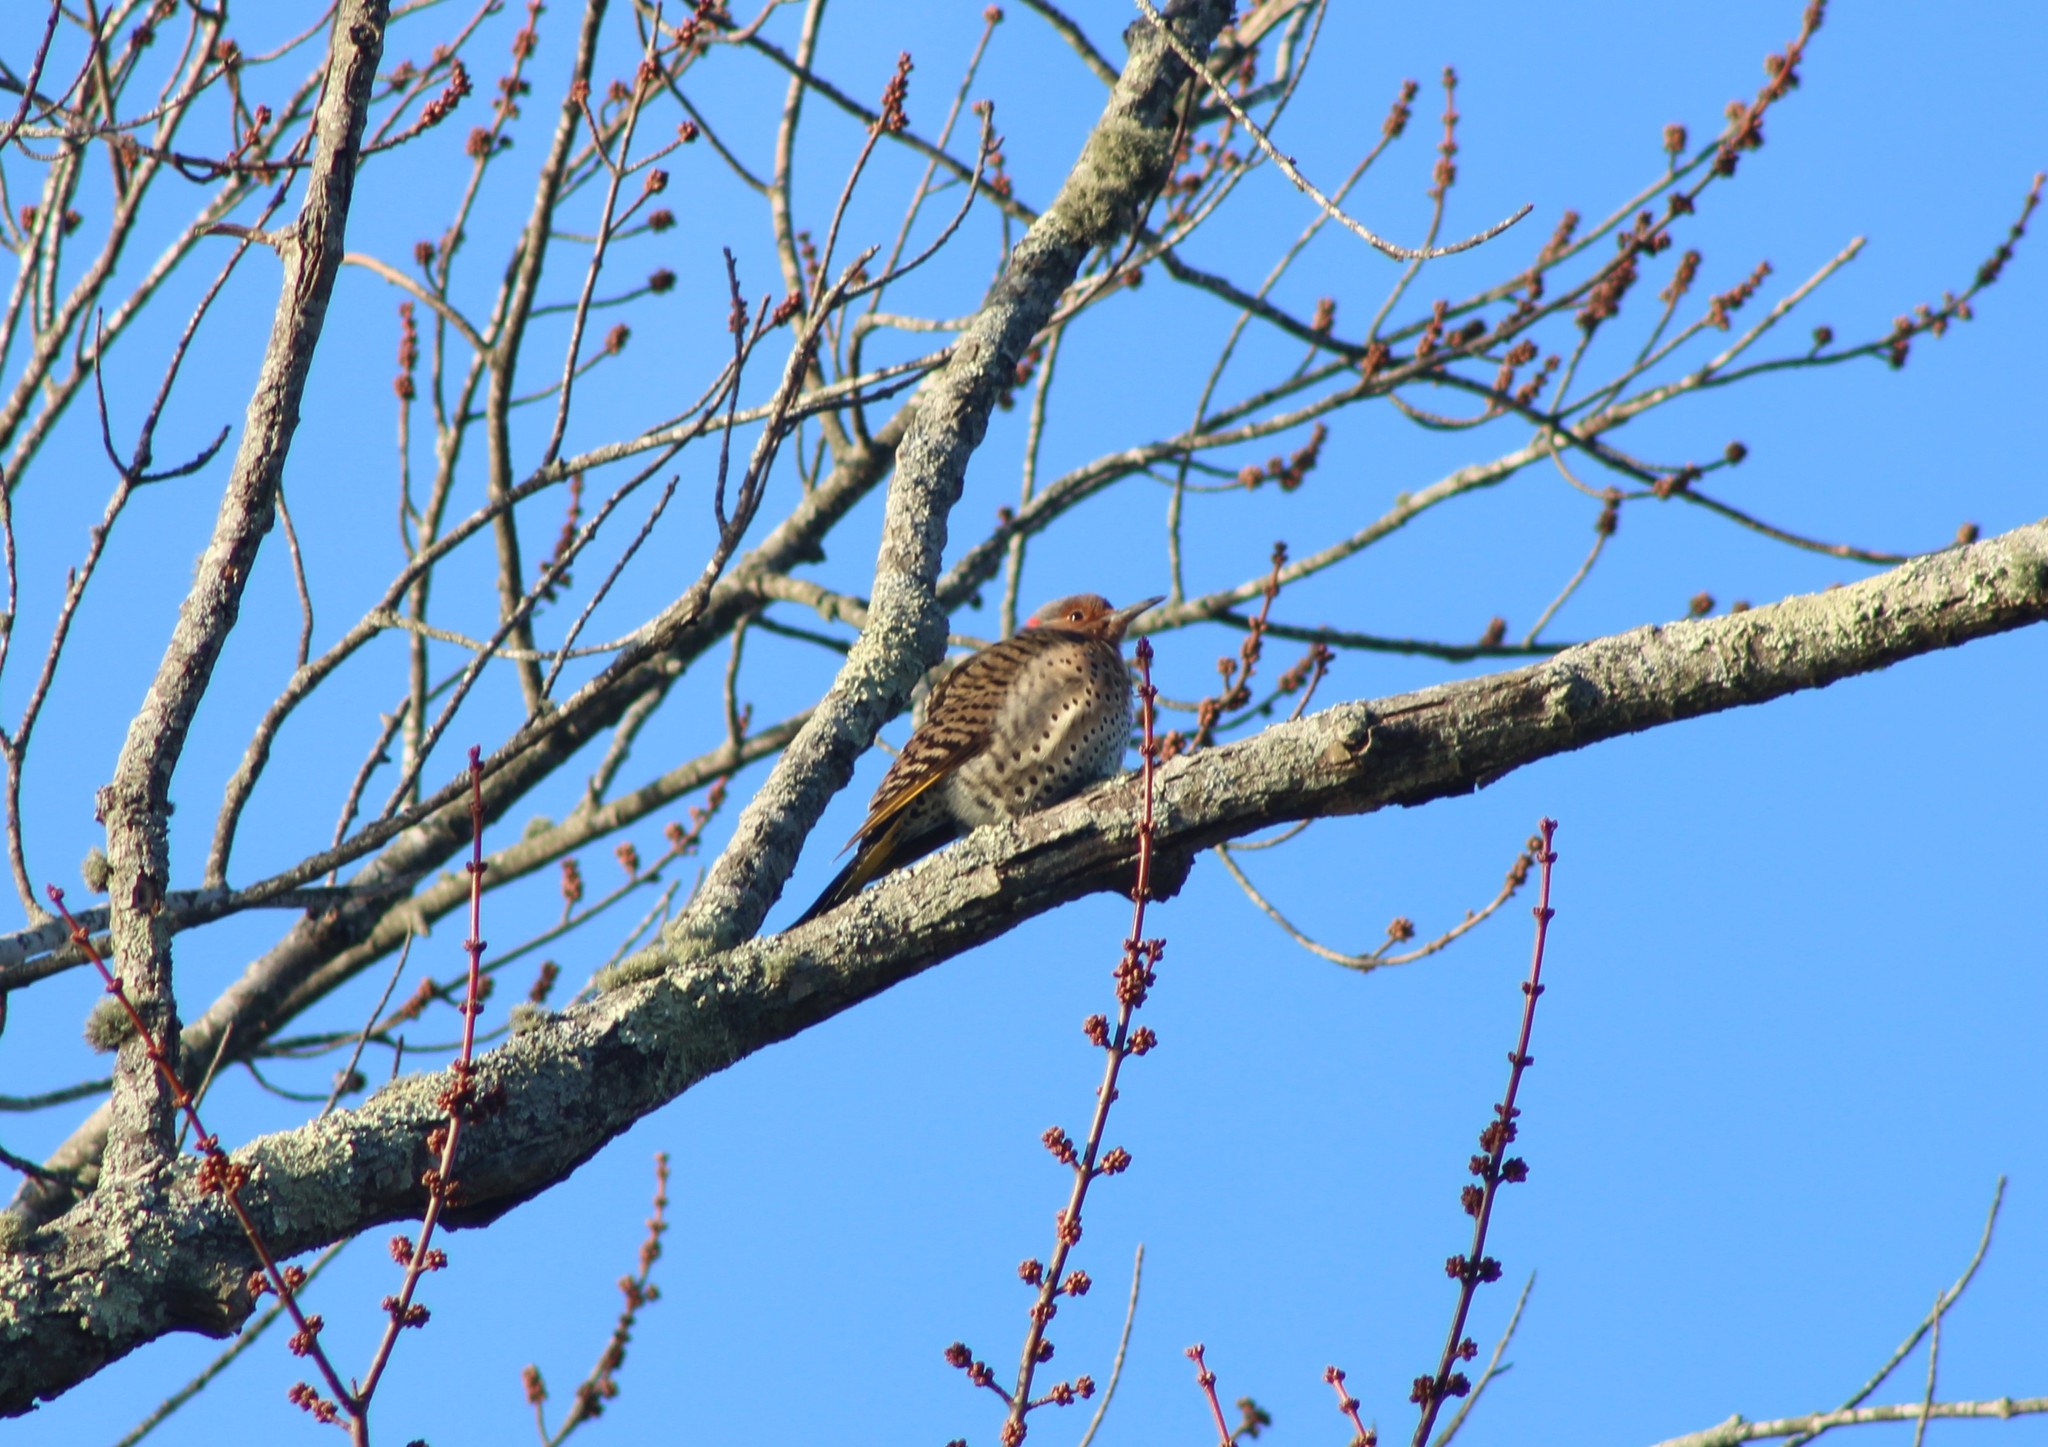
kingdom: Animalia
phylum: Chordata
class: Aves
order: Piciformes
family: Picidae
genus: Colaptes
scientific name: Colaptes auratus
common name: Northern flicker
